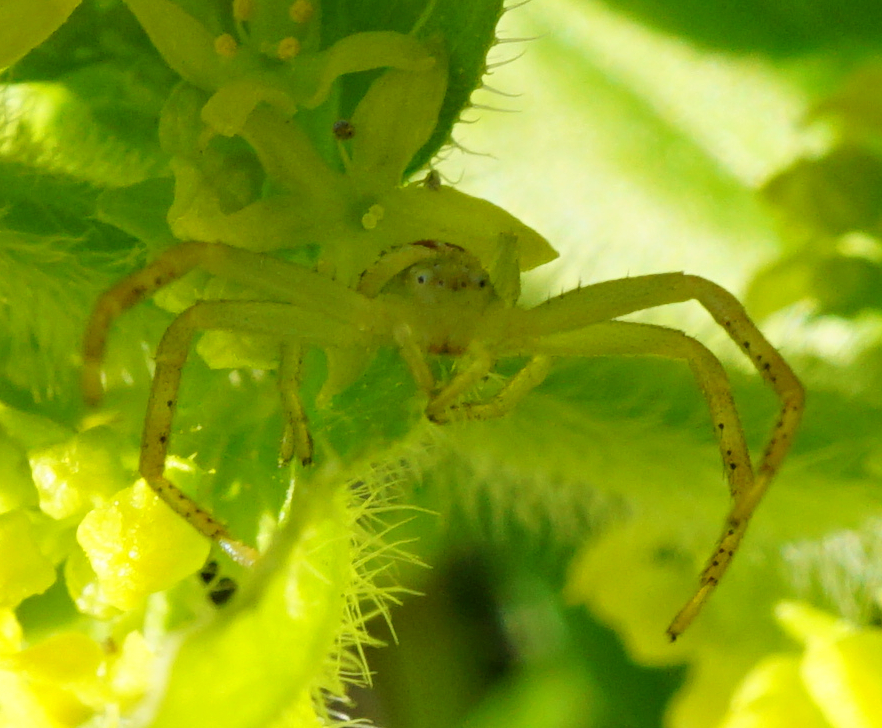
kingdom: Animalia
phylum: Arthropoda
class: Arachnida
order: Araneae
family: Thomisidae
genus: Ebrechtella
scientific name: Ebrechtella tricuspidata
